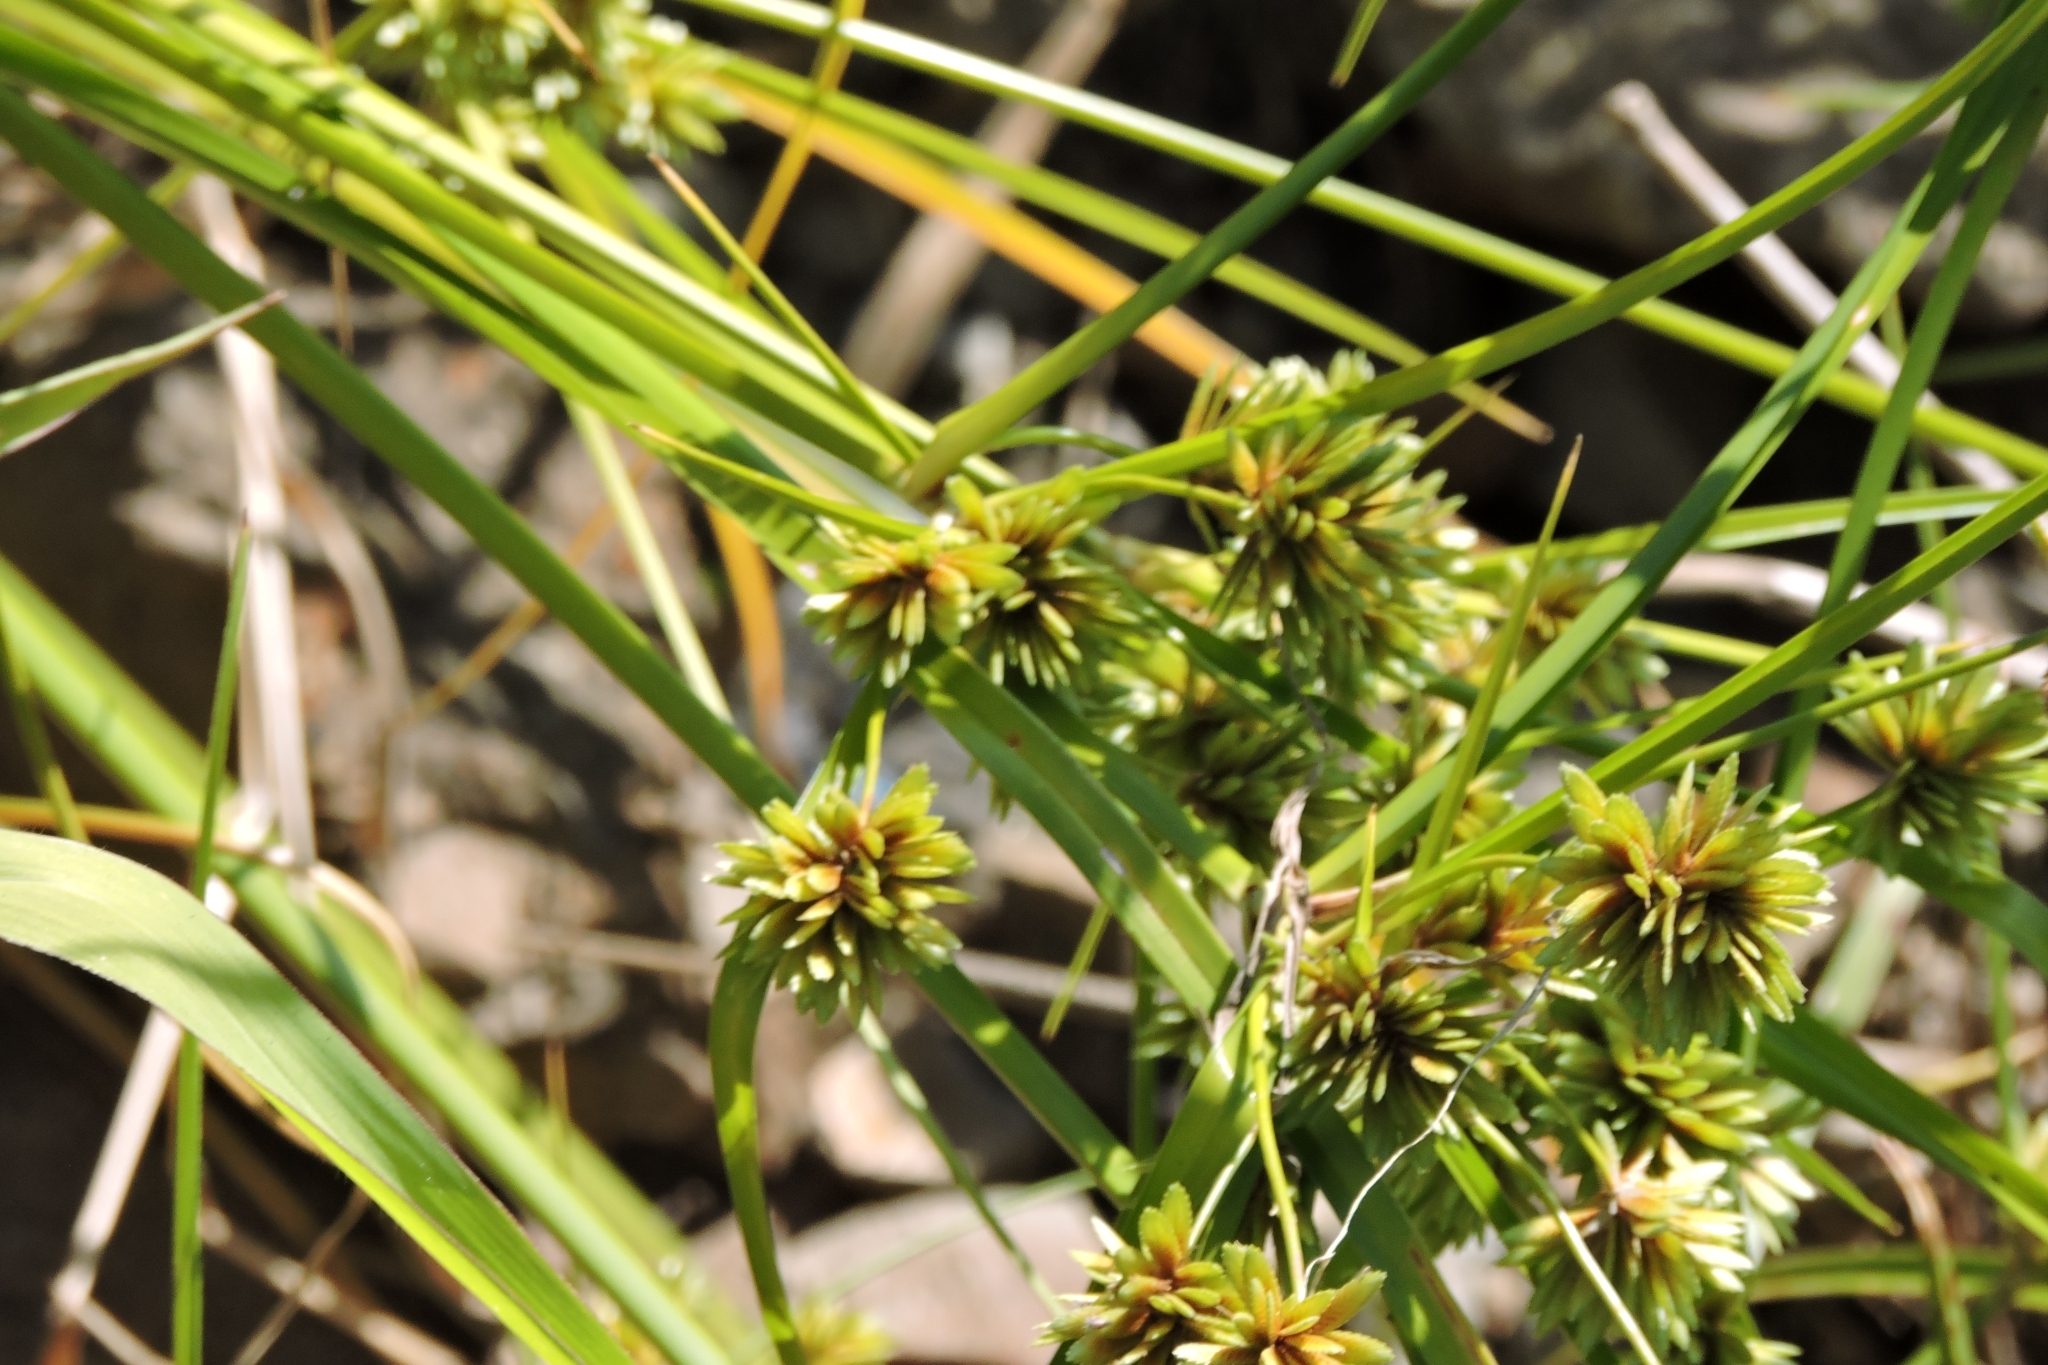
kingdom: Plantae
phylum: Tracheophyta
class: Liliopsida
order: Poales
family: Cyperaceae
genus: Cyperus
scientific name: Cyperus eragrostis
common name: Tall flatsedge
